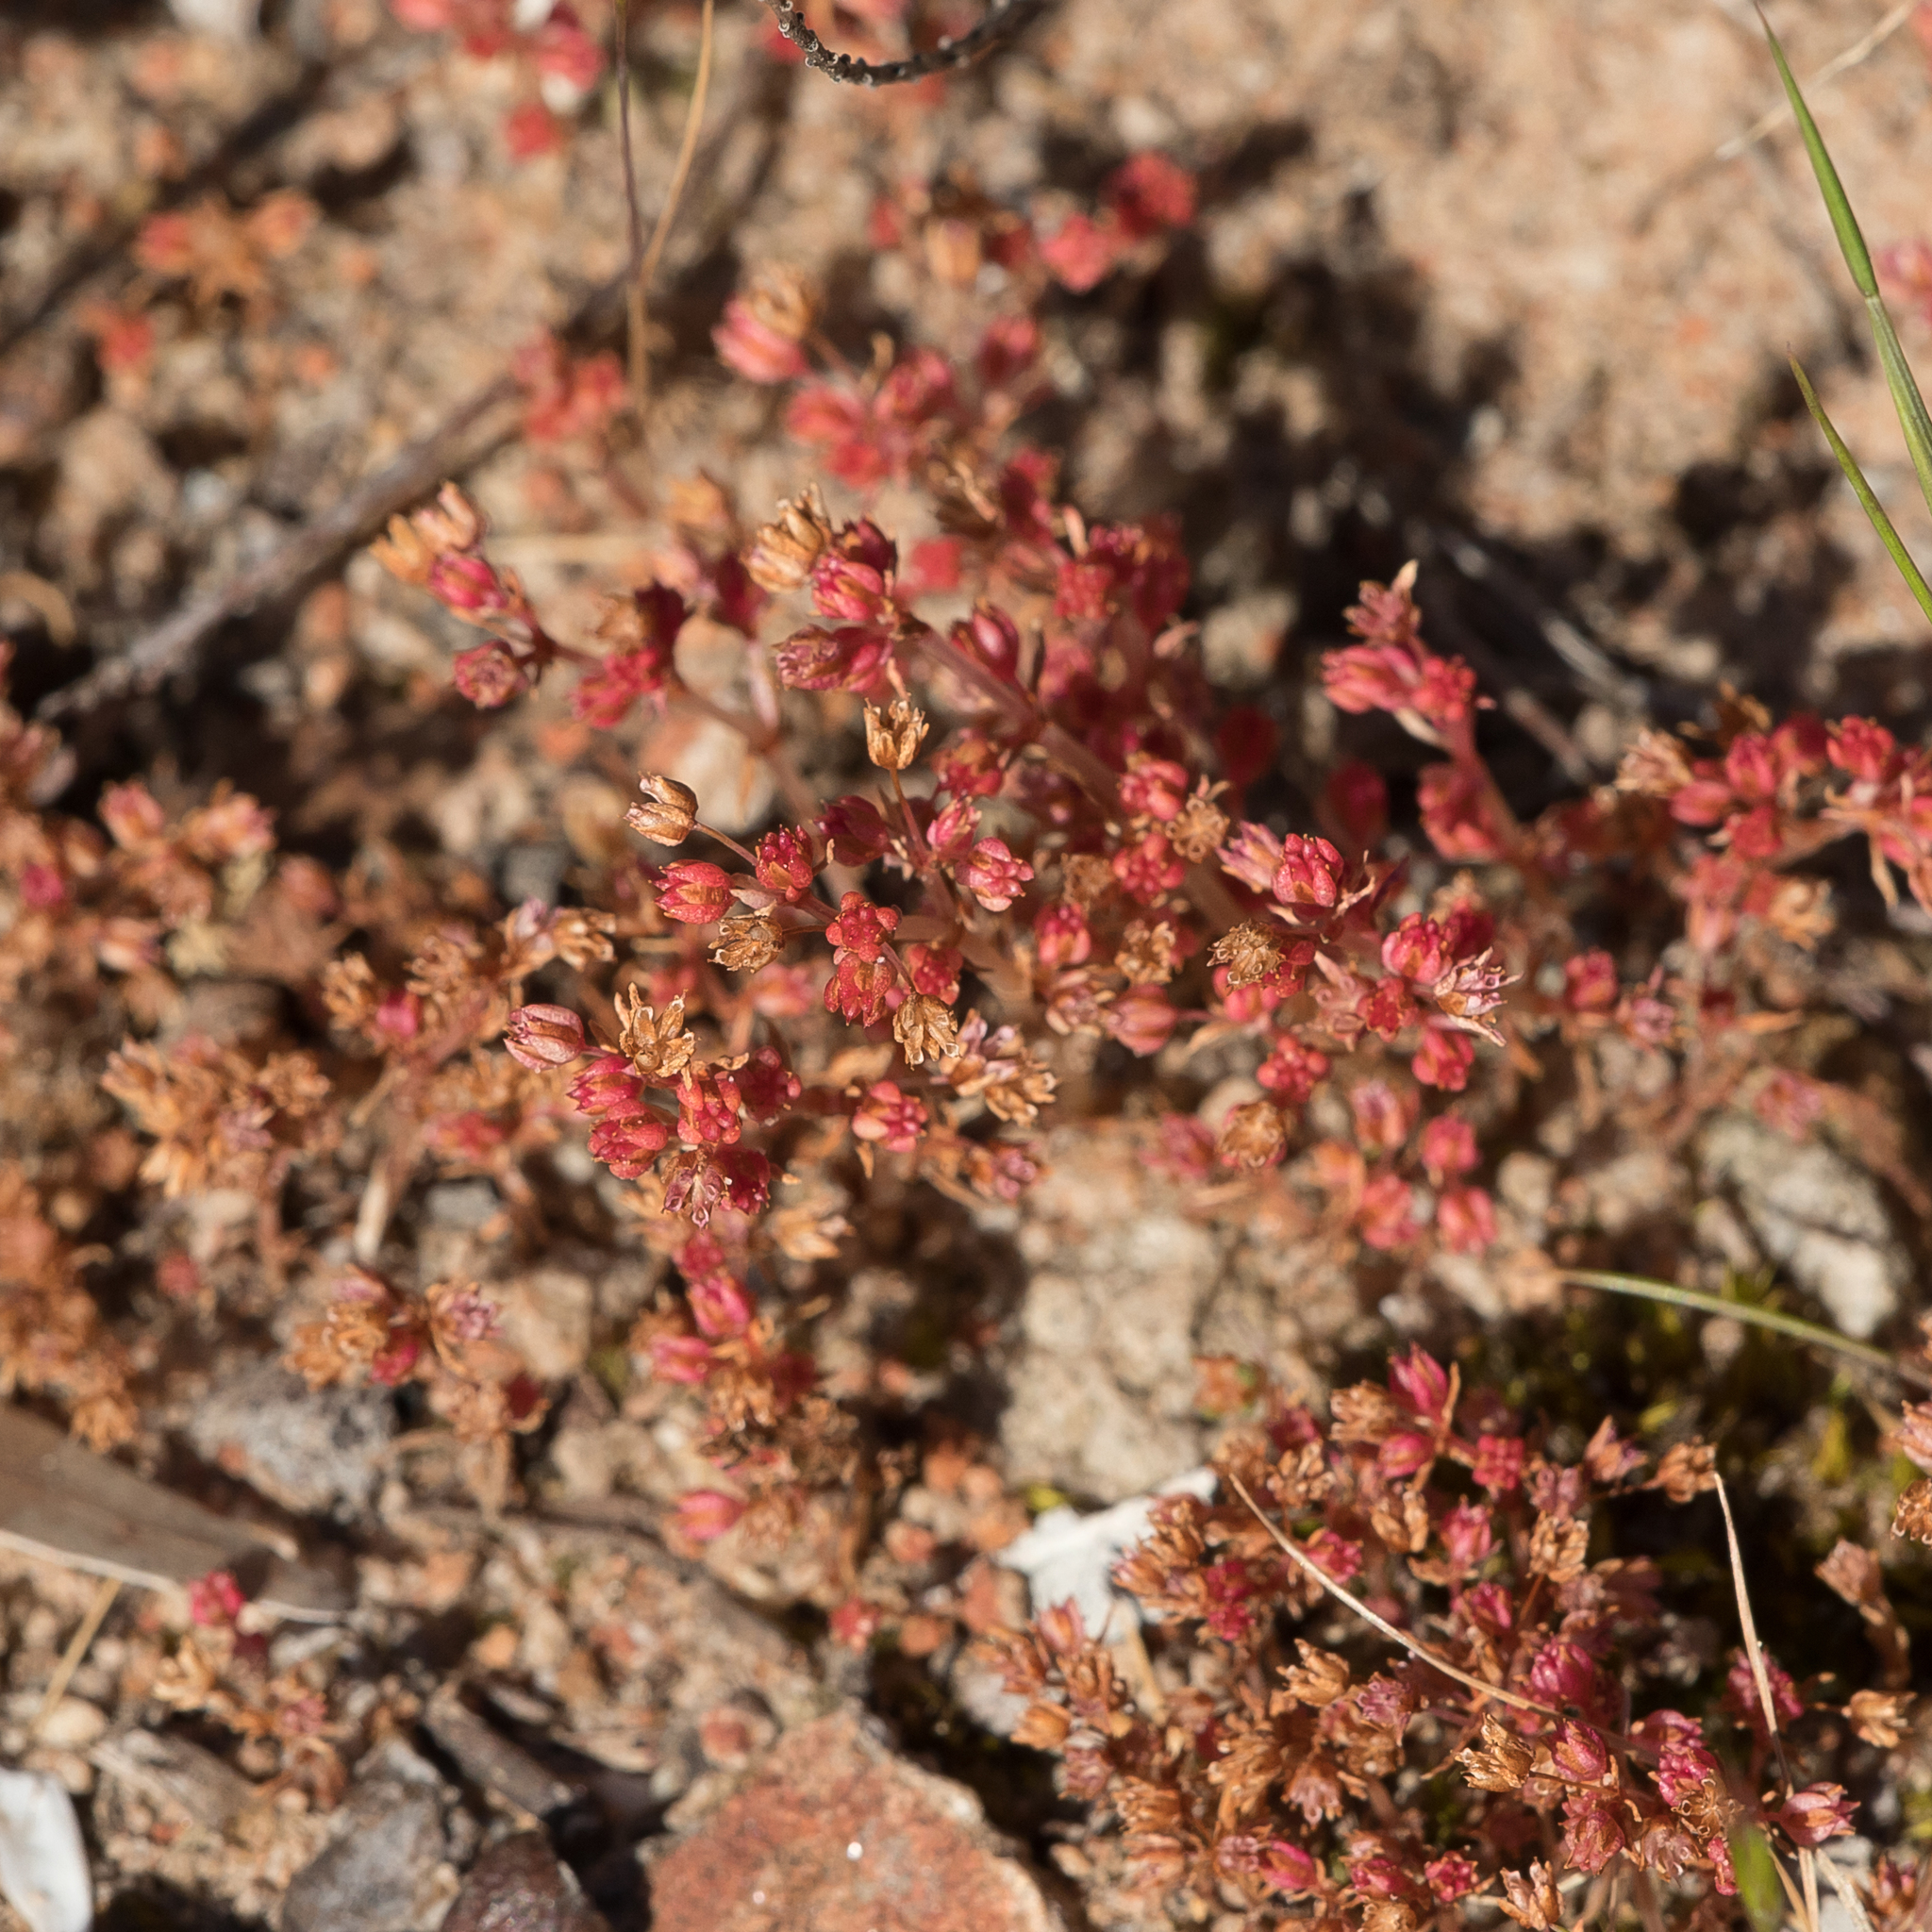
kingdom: Plantae
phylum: Tracheophyta
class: Magnoliopsida
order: Saxifragales
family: Crassulaceae
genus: Crassula
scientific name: Crassula decumbens
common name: Scilly pigmyweed
